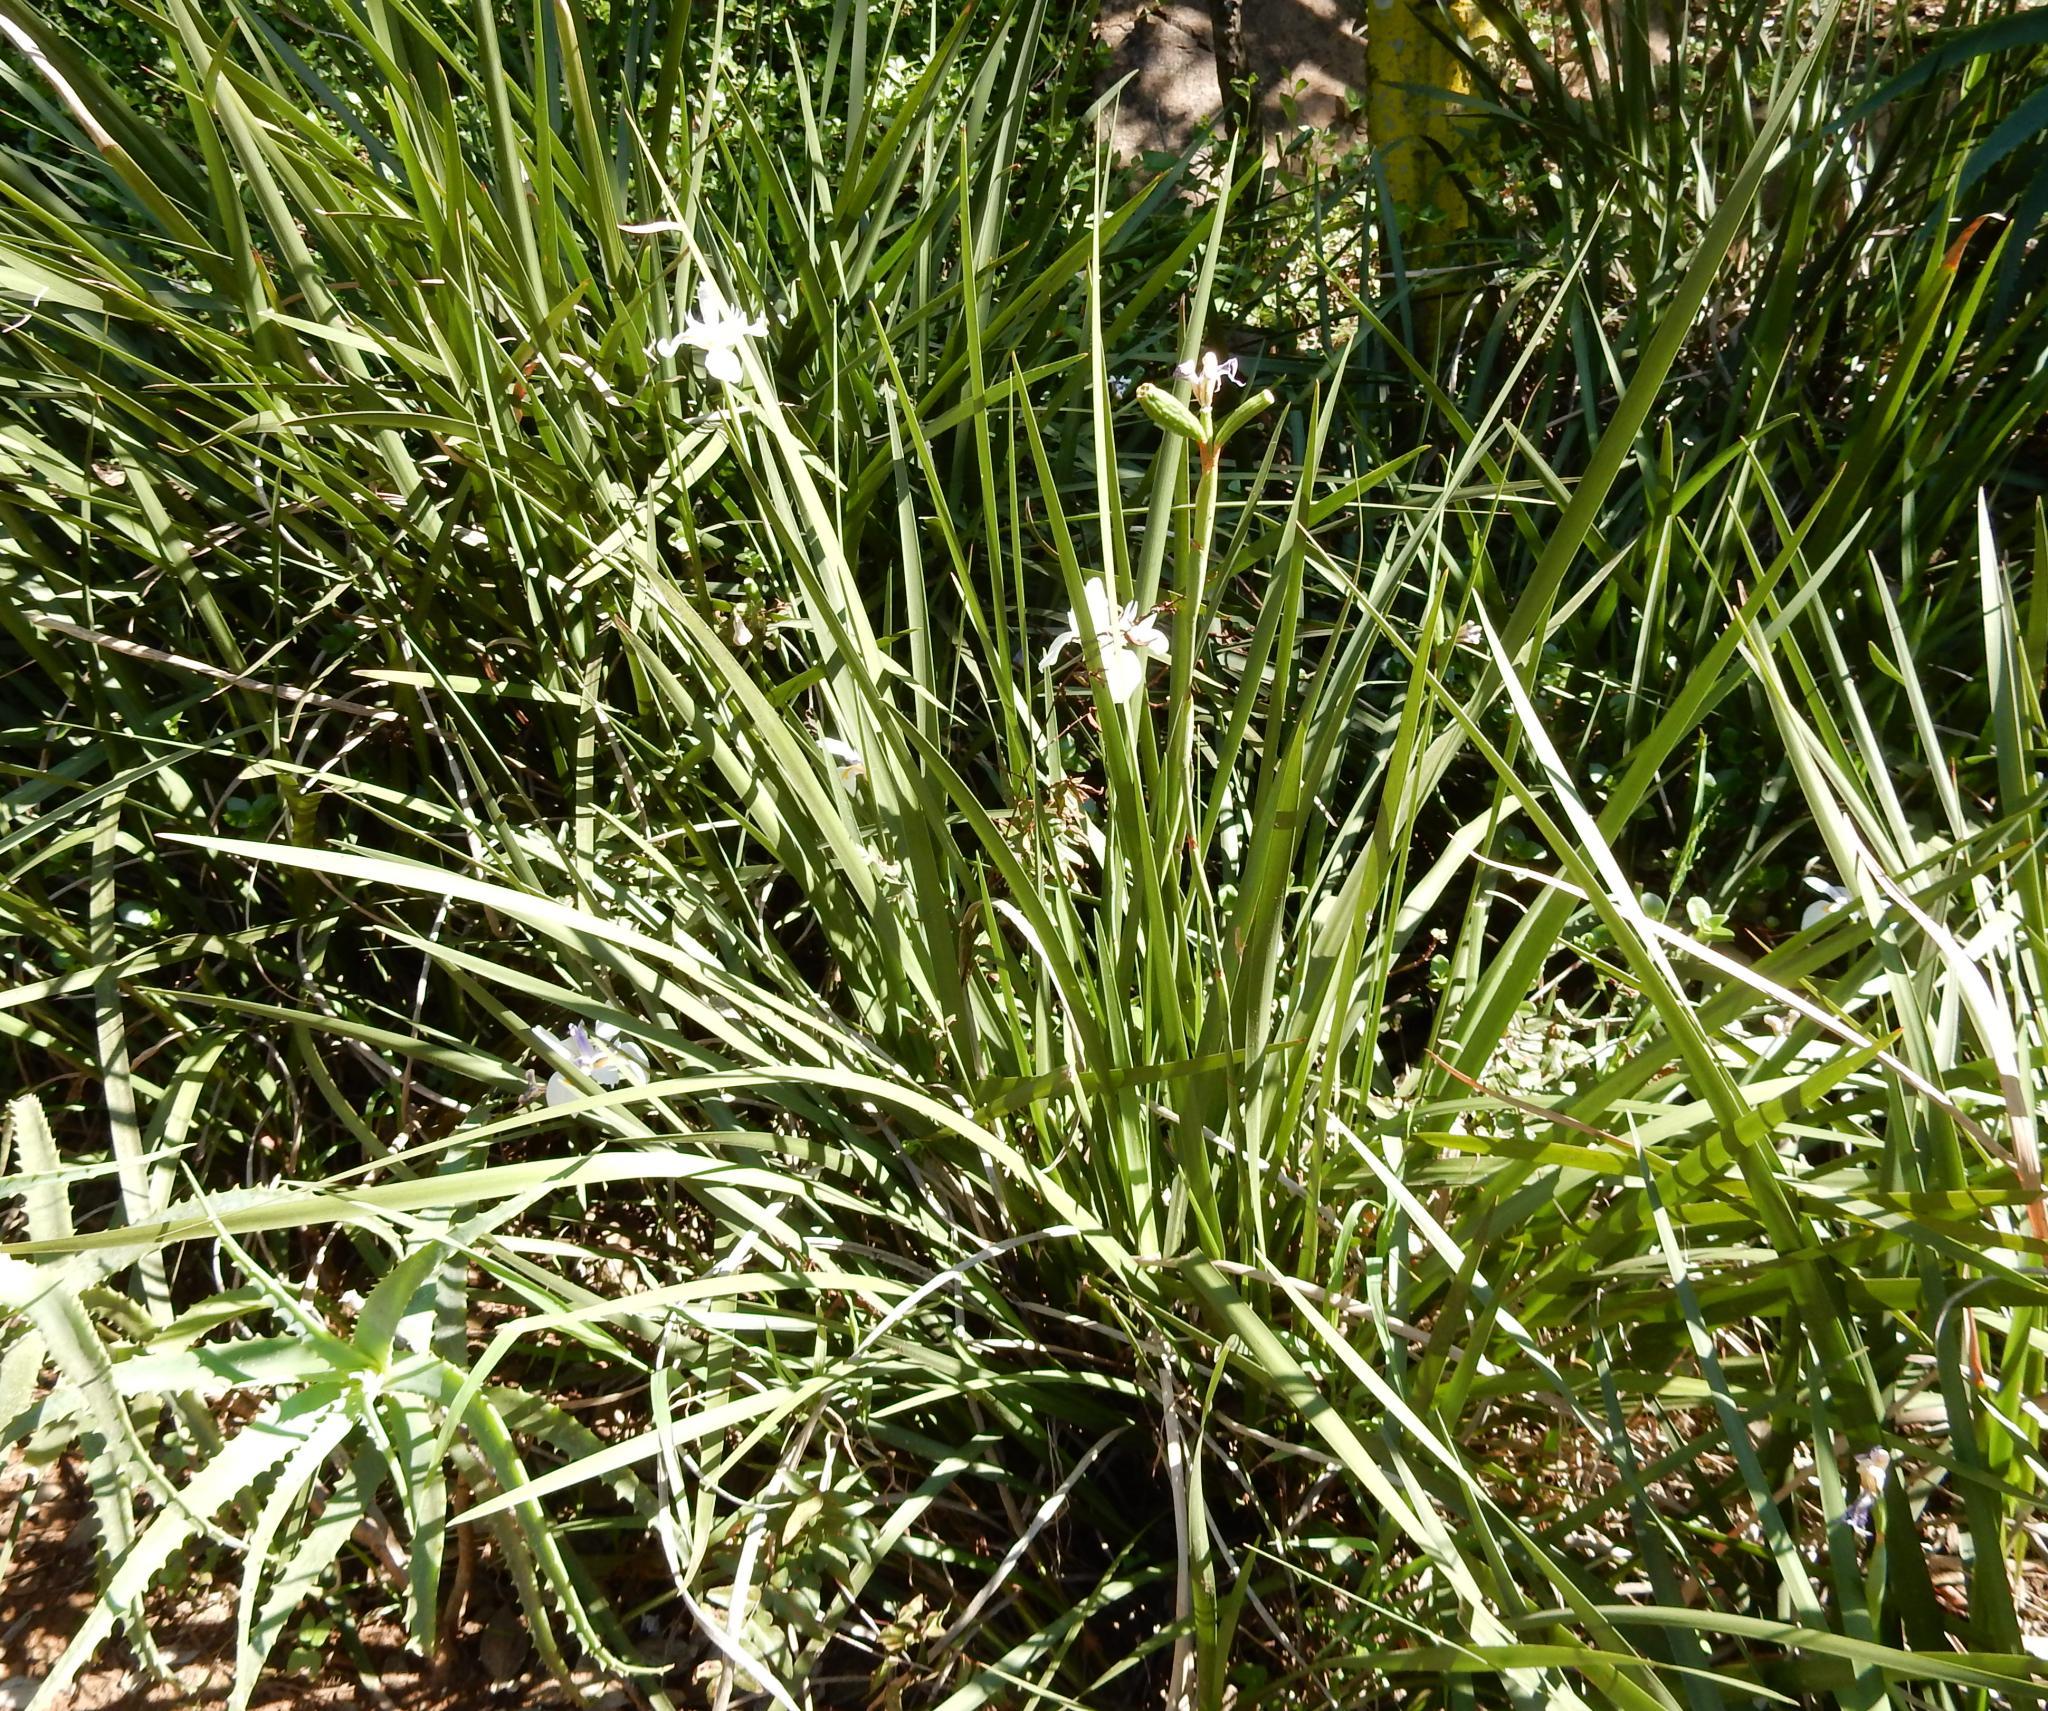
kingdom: Plantae
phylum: Tracheophyta
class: Liliopsida
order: Asparagales
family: Iridaceae
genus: Dietes
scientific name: Dietes grandiflora
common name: Wild iris
